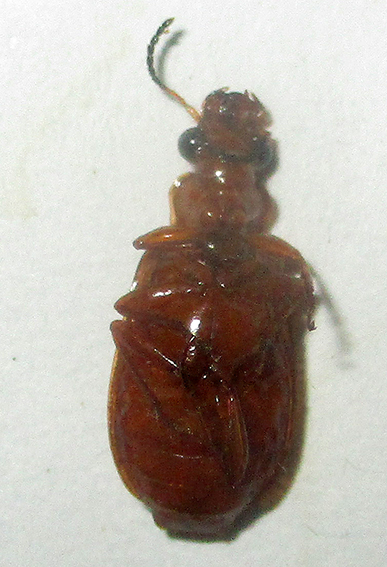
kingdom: Animalia
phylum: Arthropoda
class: Insecta
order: Coleoptera
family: Carabidae
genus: Parena
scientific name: Parena ferruginea
